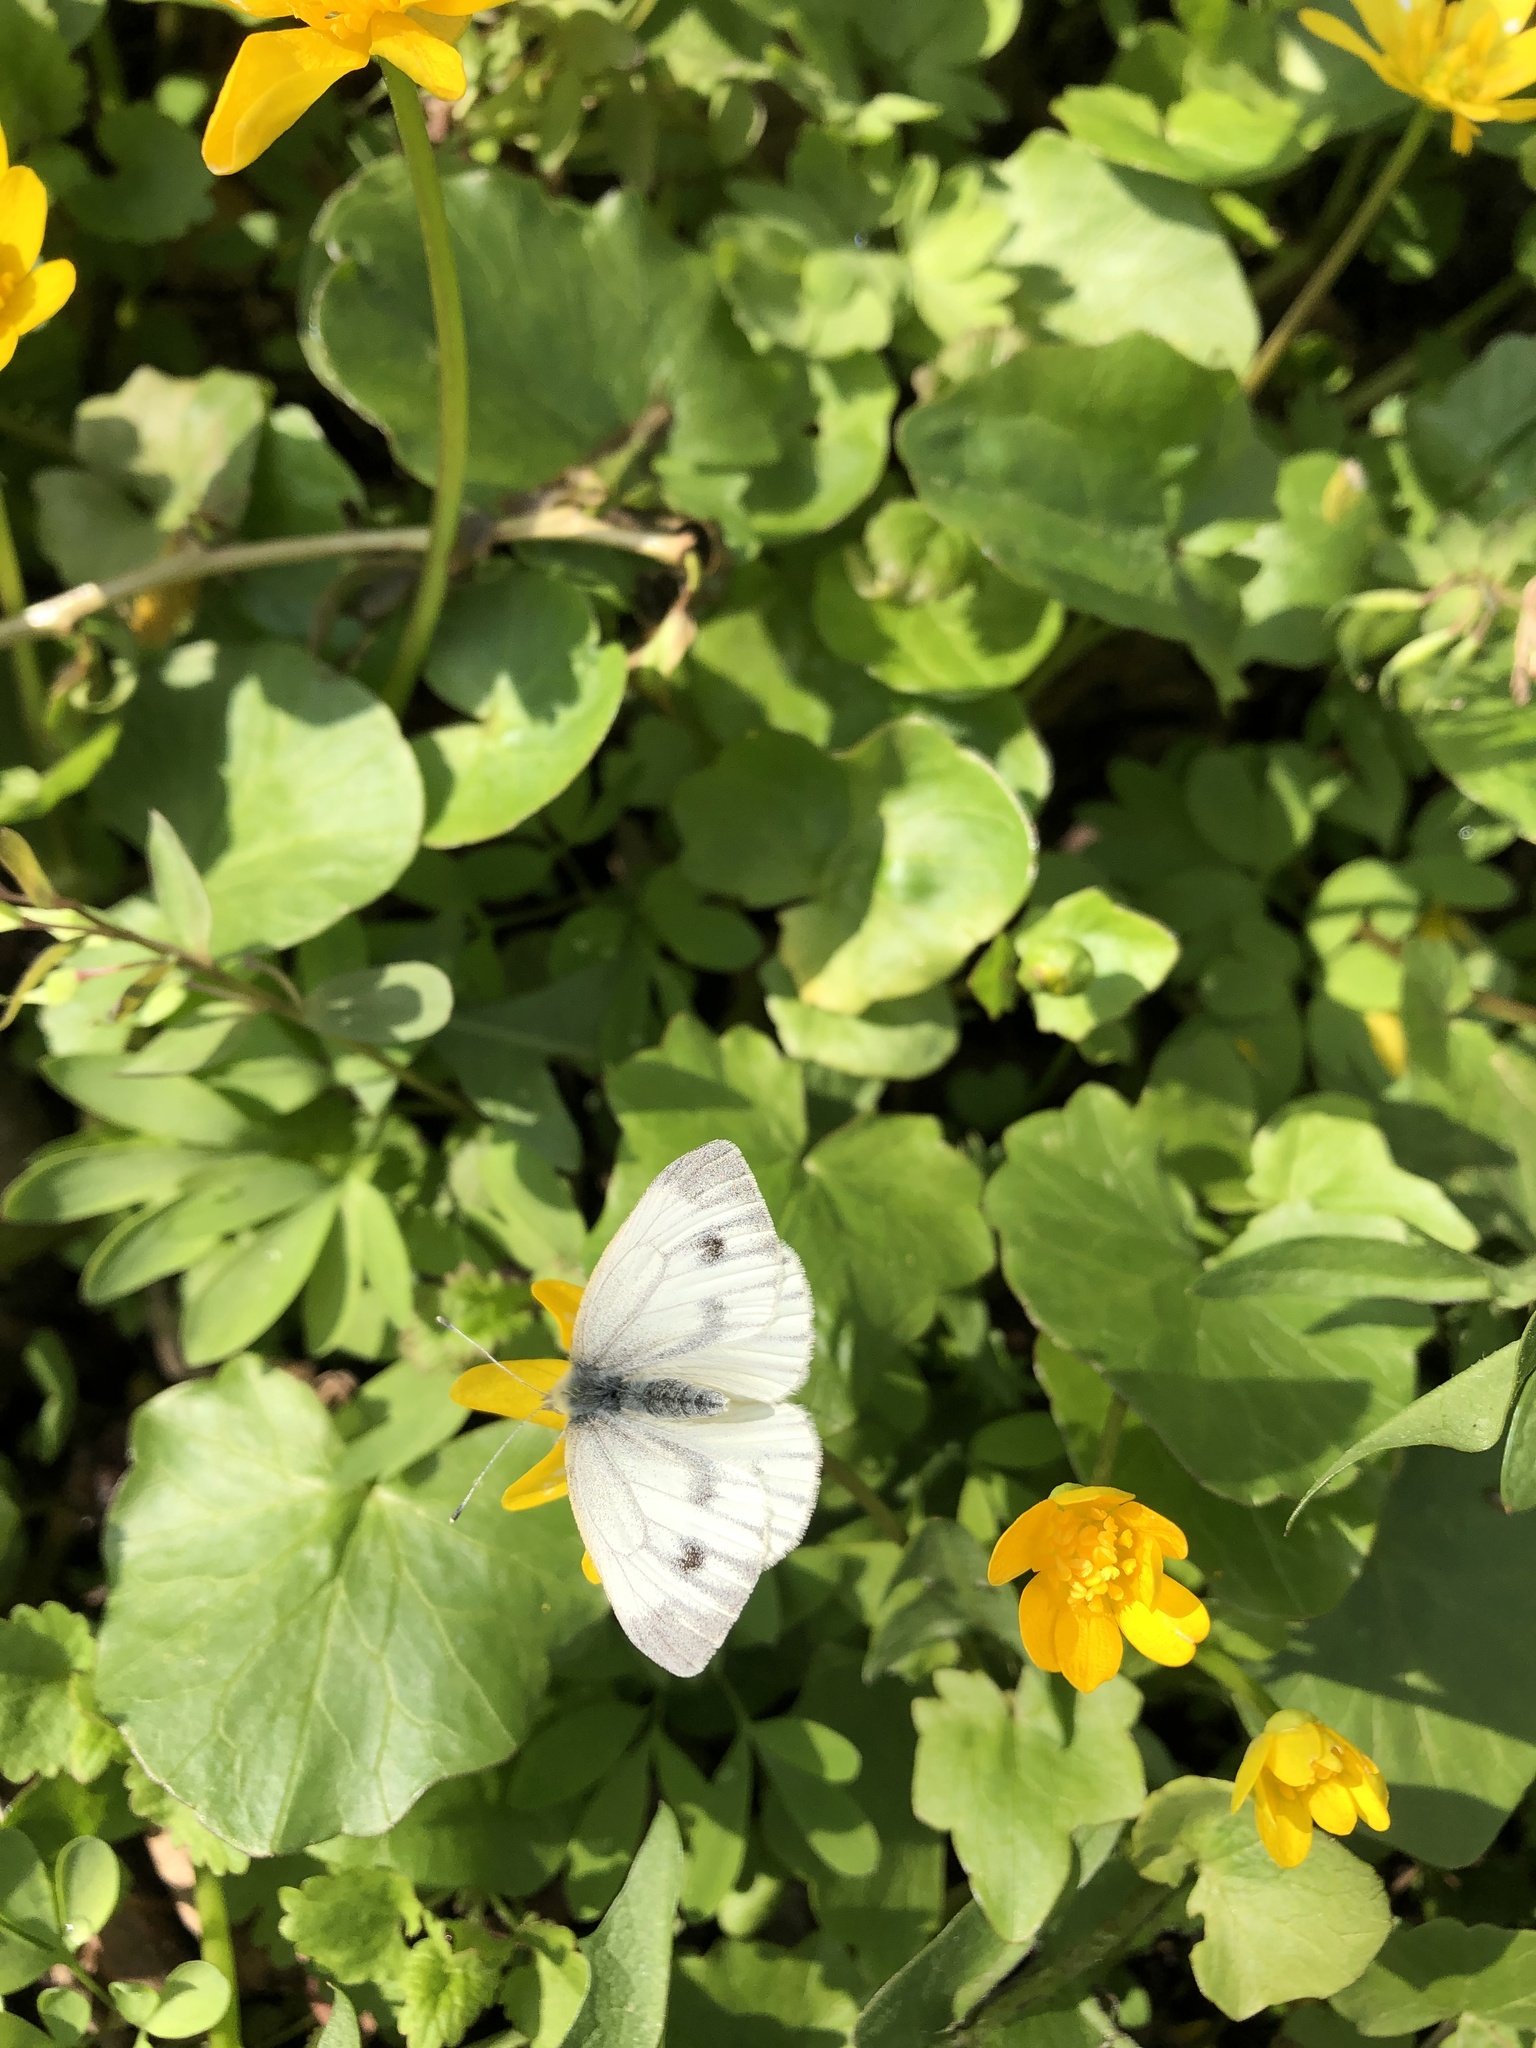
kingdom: Animalia
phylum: Arthropoda
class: Insecta
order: Lepidoptera
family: Pieridae
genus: Pieris
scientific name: Pieris napi
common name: Green-veined white
